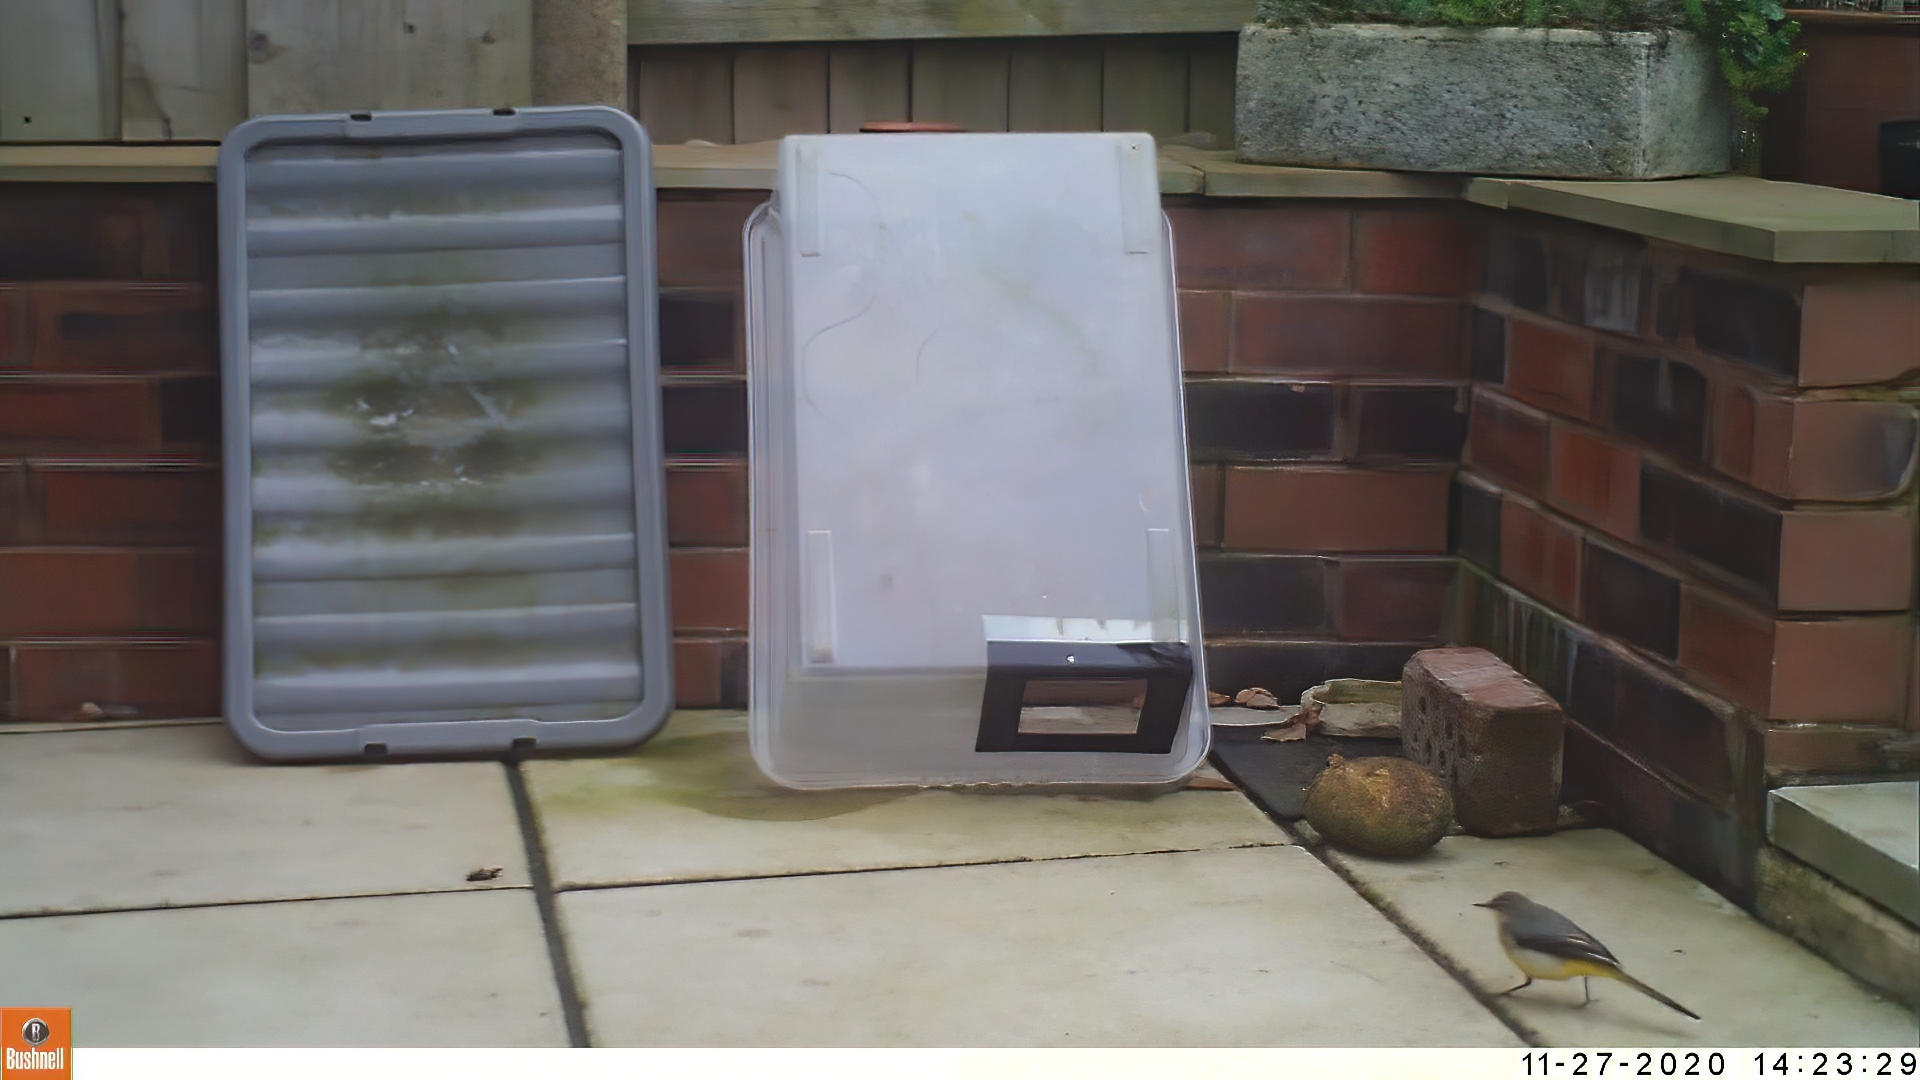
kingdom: Animalia
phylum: Chordata
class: Aves
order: Passeriformes
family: Motacillidae
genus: Motacilla
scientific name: Motacilla cinerea
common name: Grey wagtail
